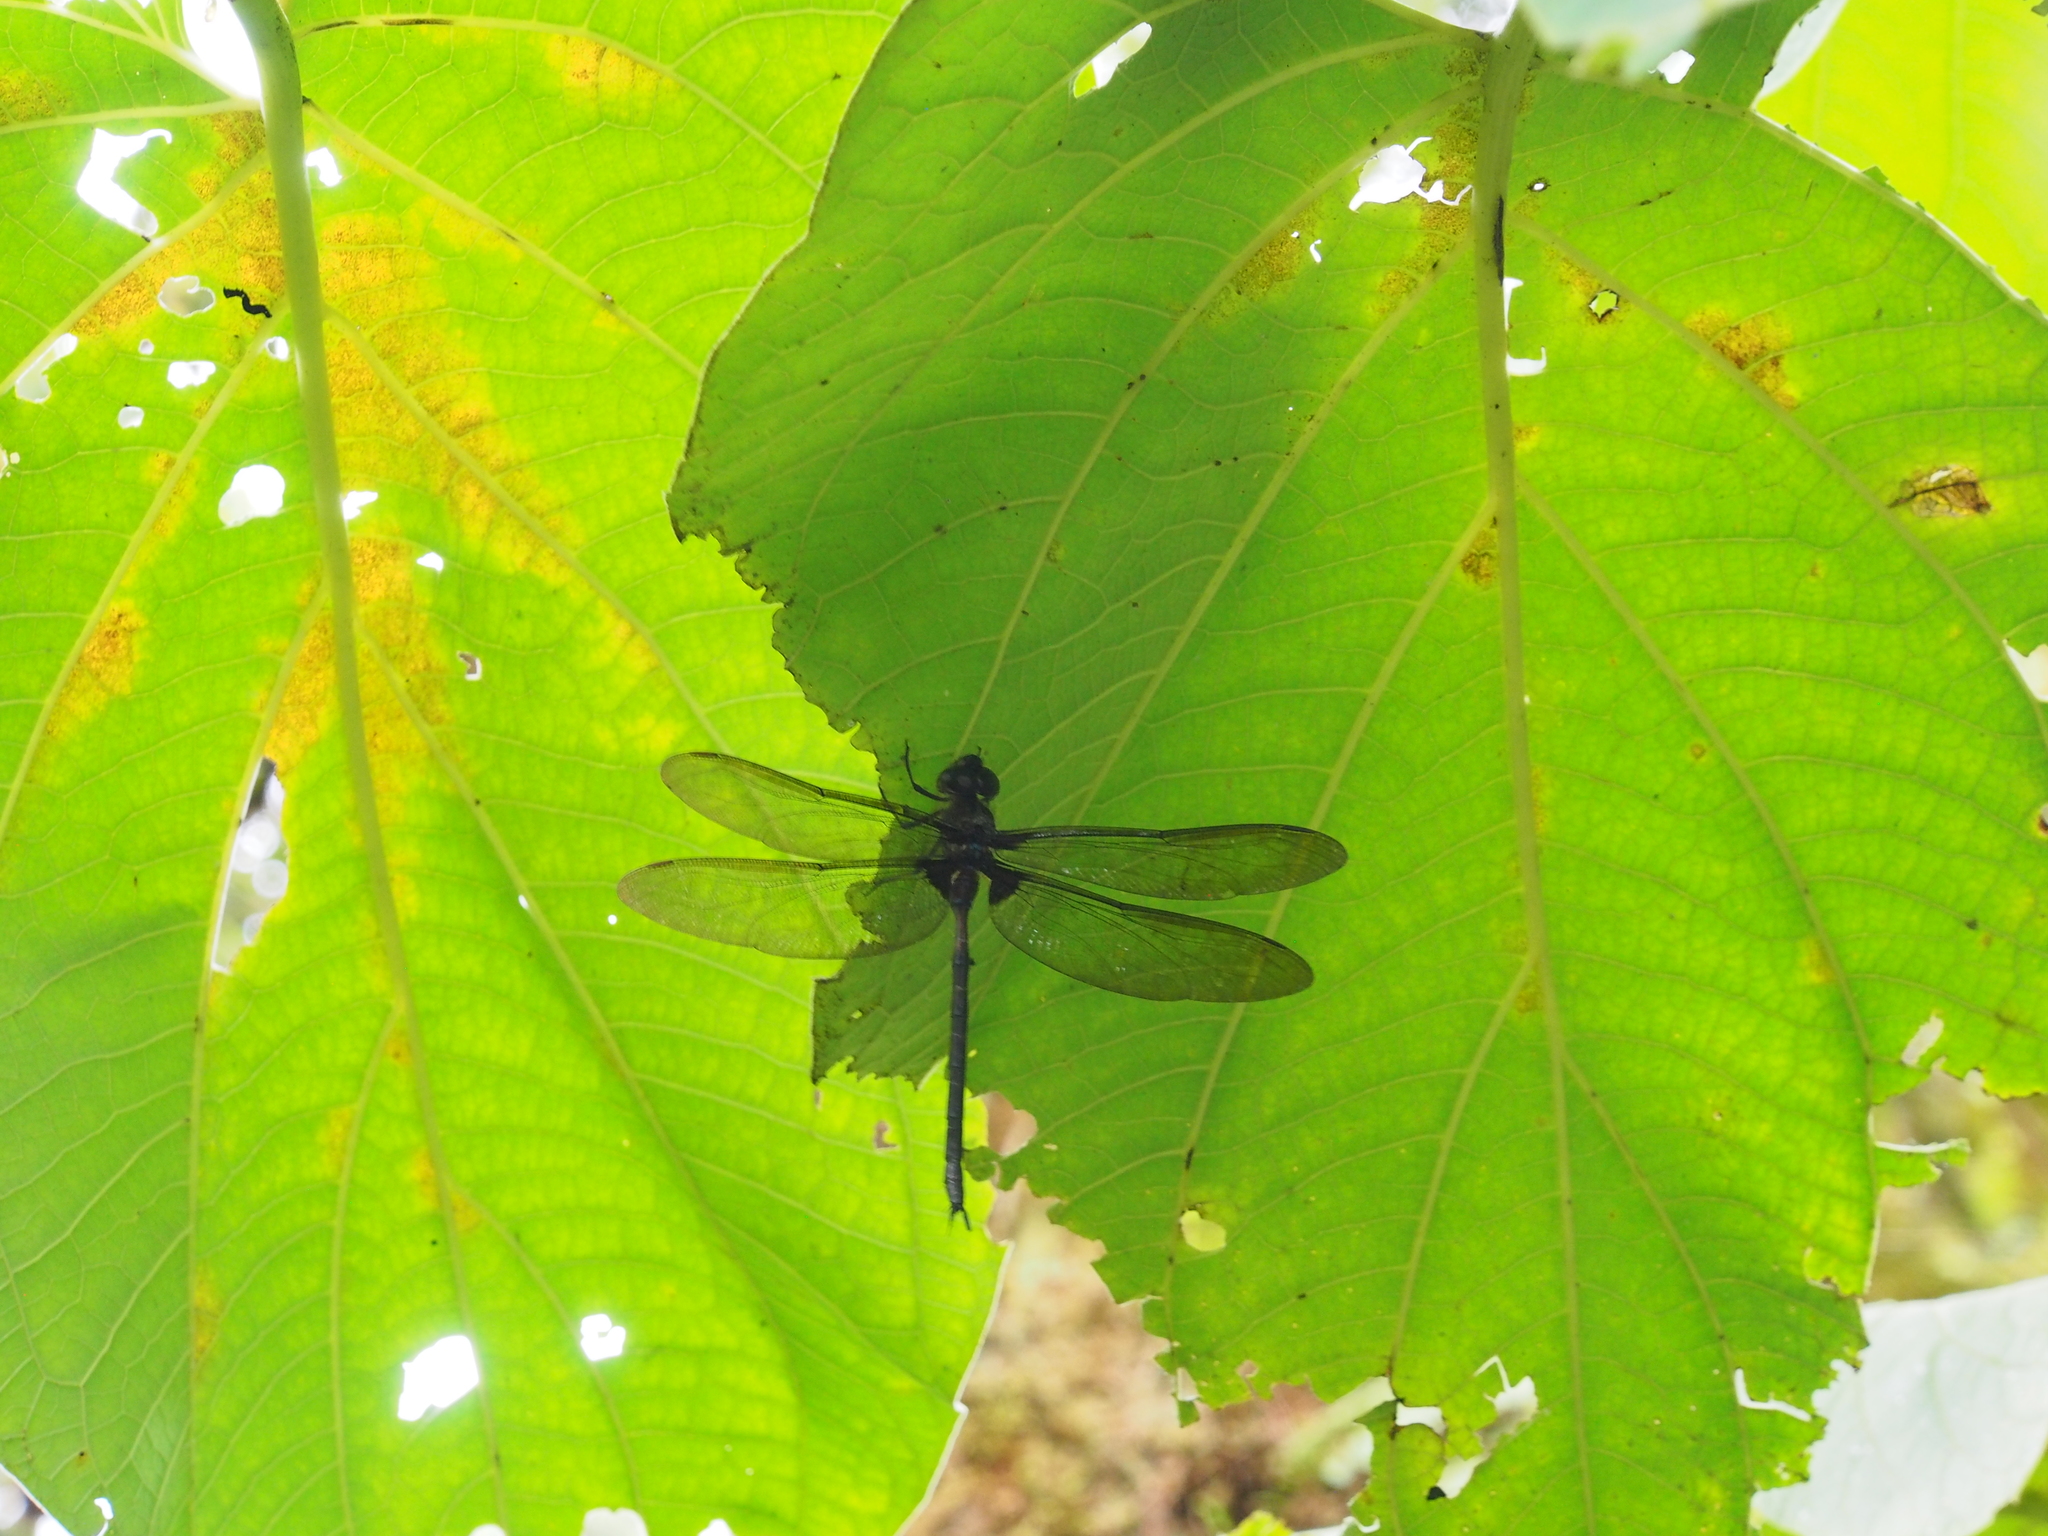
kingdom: Animalia
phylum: Arthropoda
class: Insecta
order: Odonata
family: Aeshnidae
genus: Gynacantha
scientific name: Gynacantha membranalis
